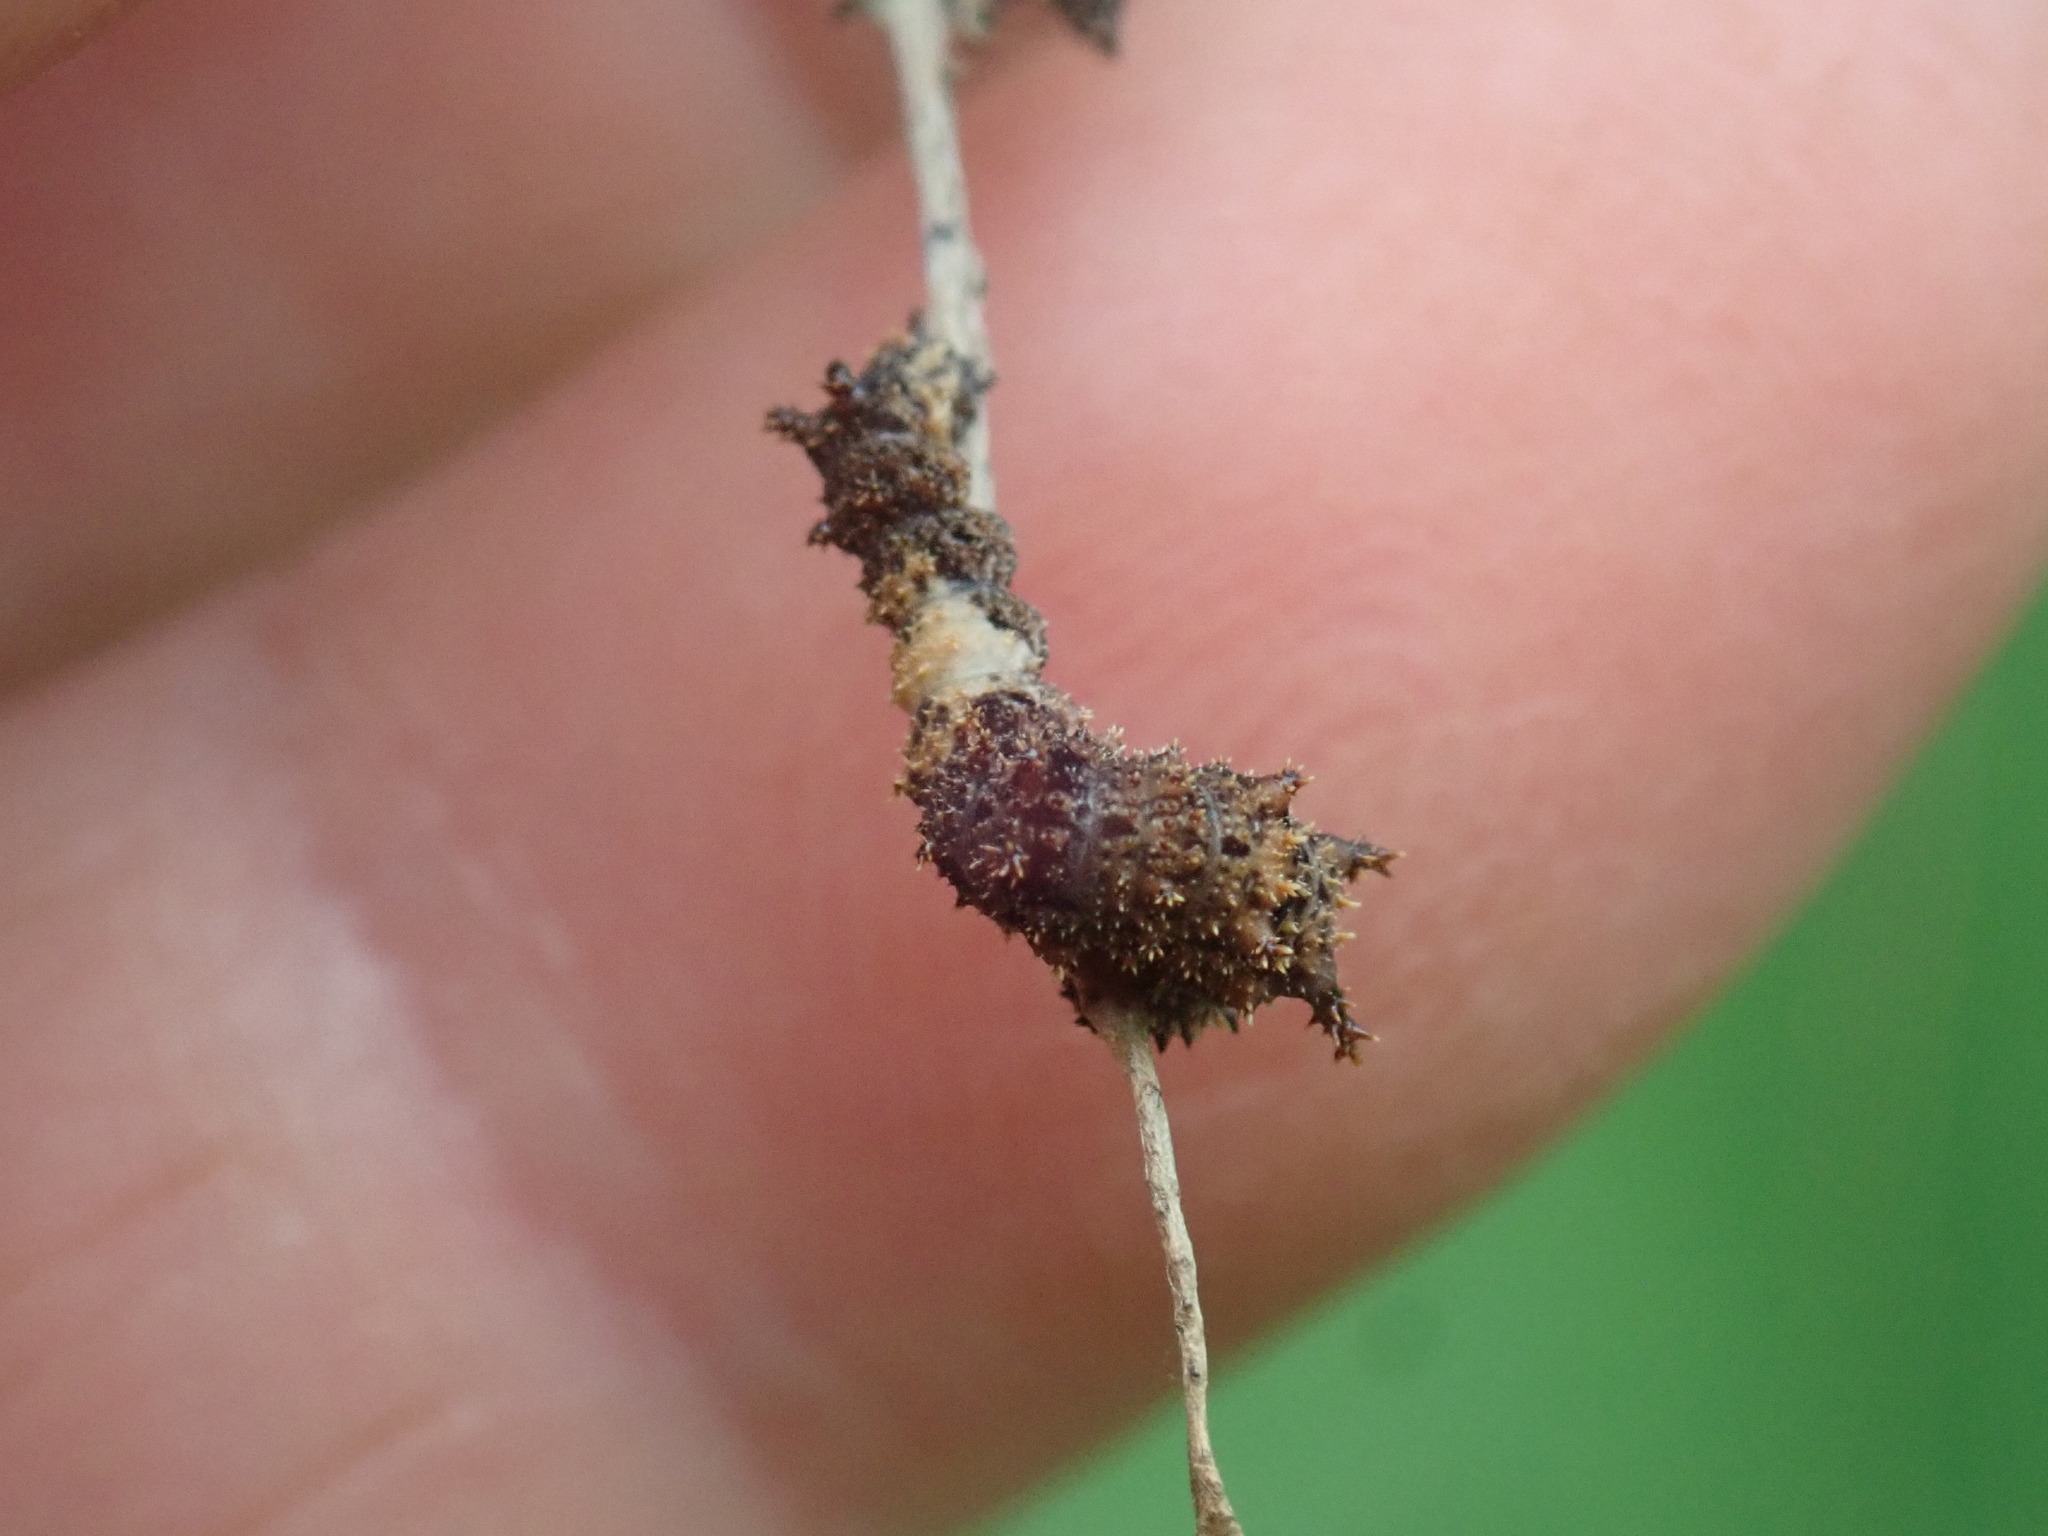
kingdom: Animalia
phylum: Arthropoda
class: Insecta
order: Lepidoptera
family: Nymphalidae
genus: Limenitis
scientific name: Limenitis archippus
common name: Viceroy
